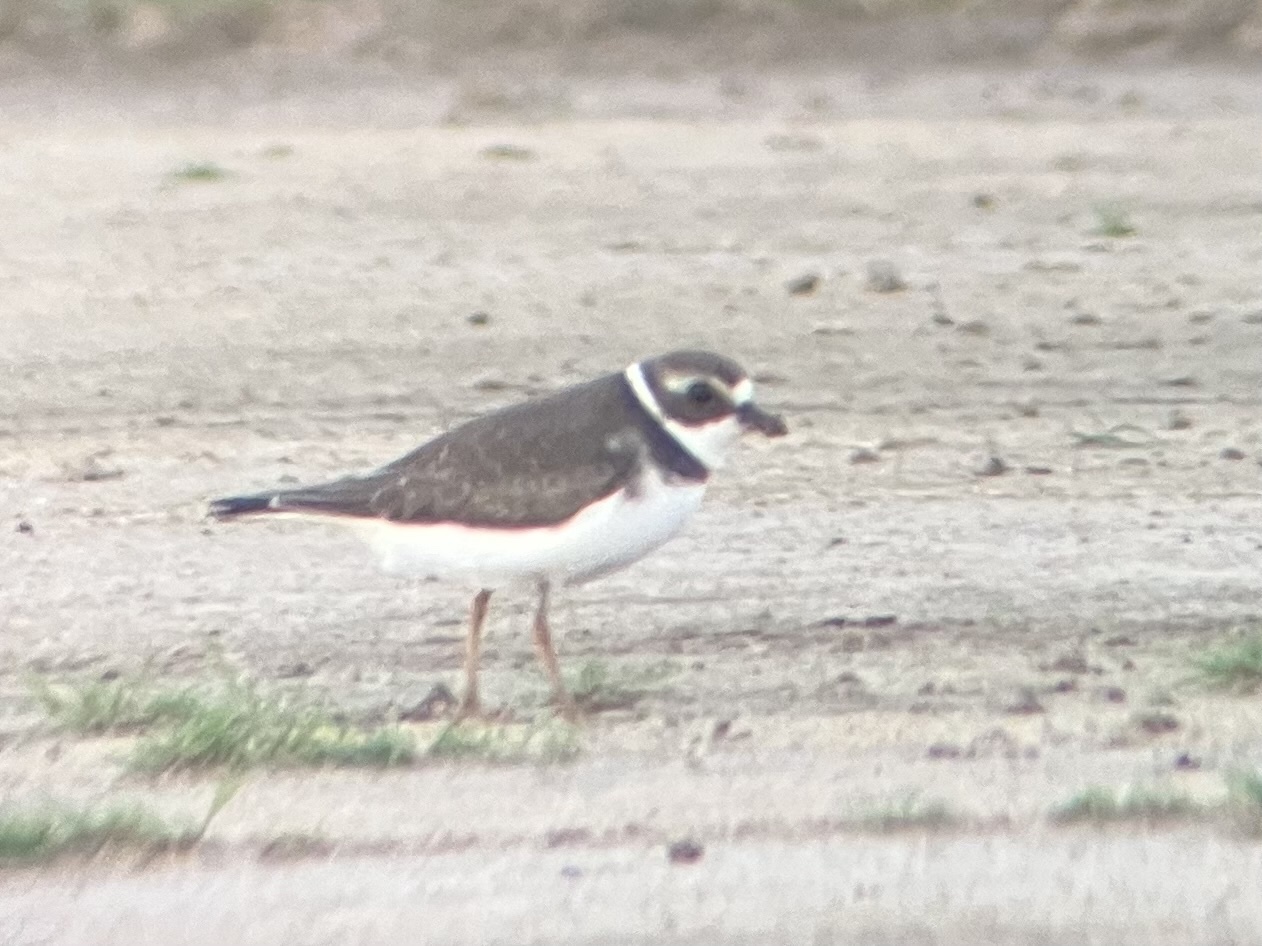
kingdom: Animalia
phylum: Chordata
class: Aves
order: Charadriiformes
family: Charadriidae
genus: Charadrius
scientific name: Charadrius semipalmatus
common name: Semipalmated plover
